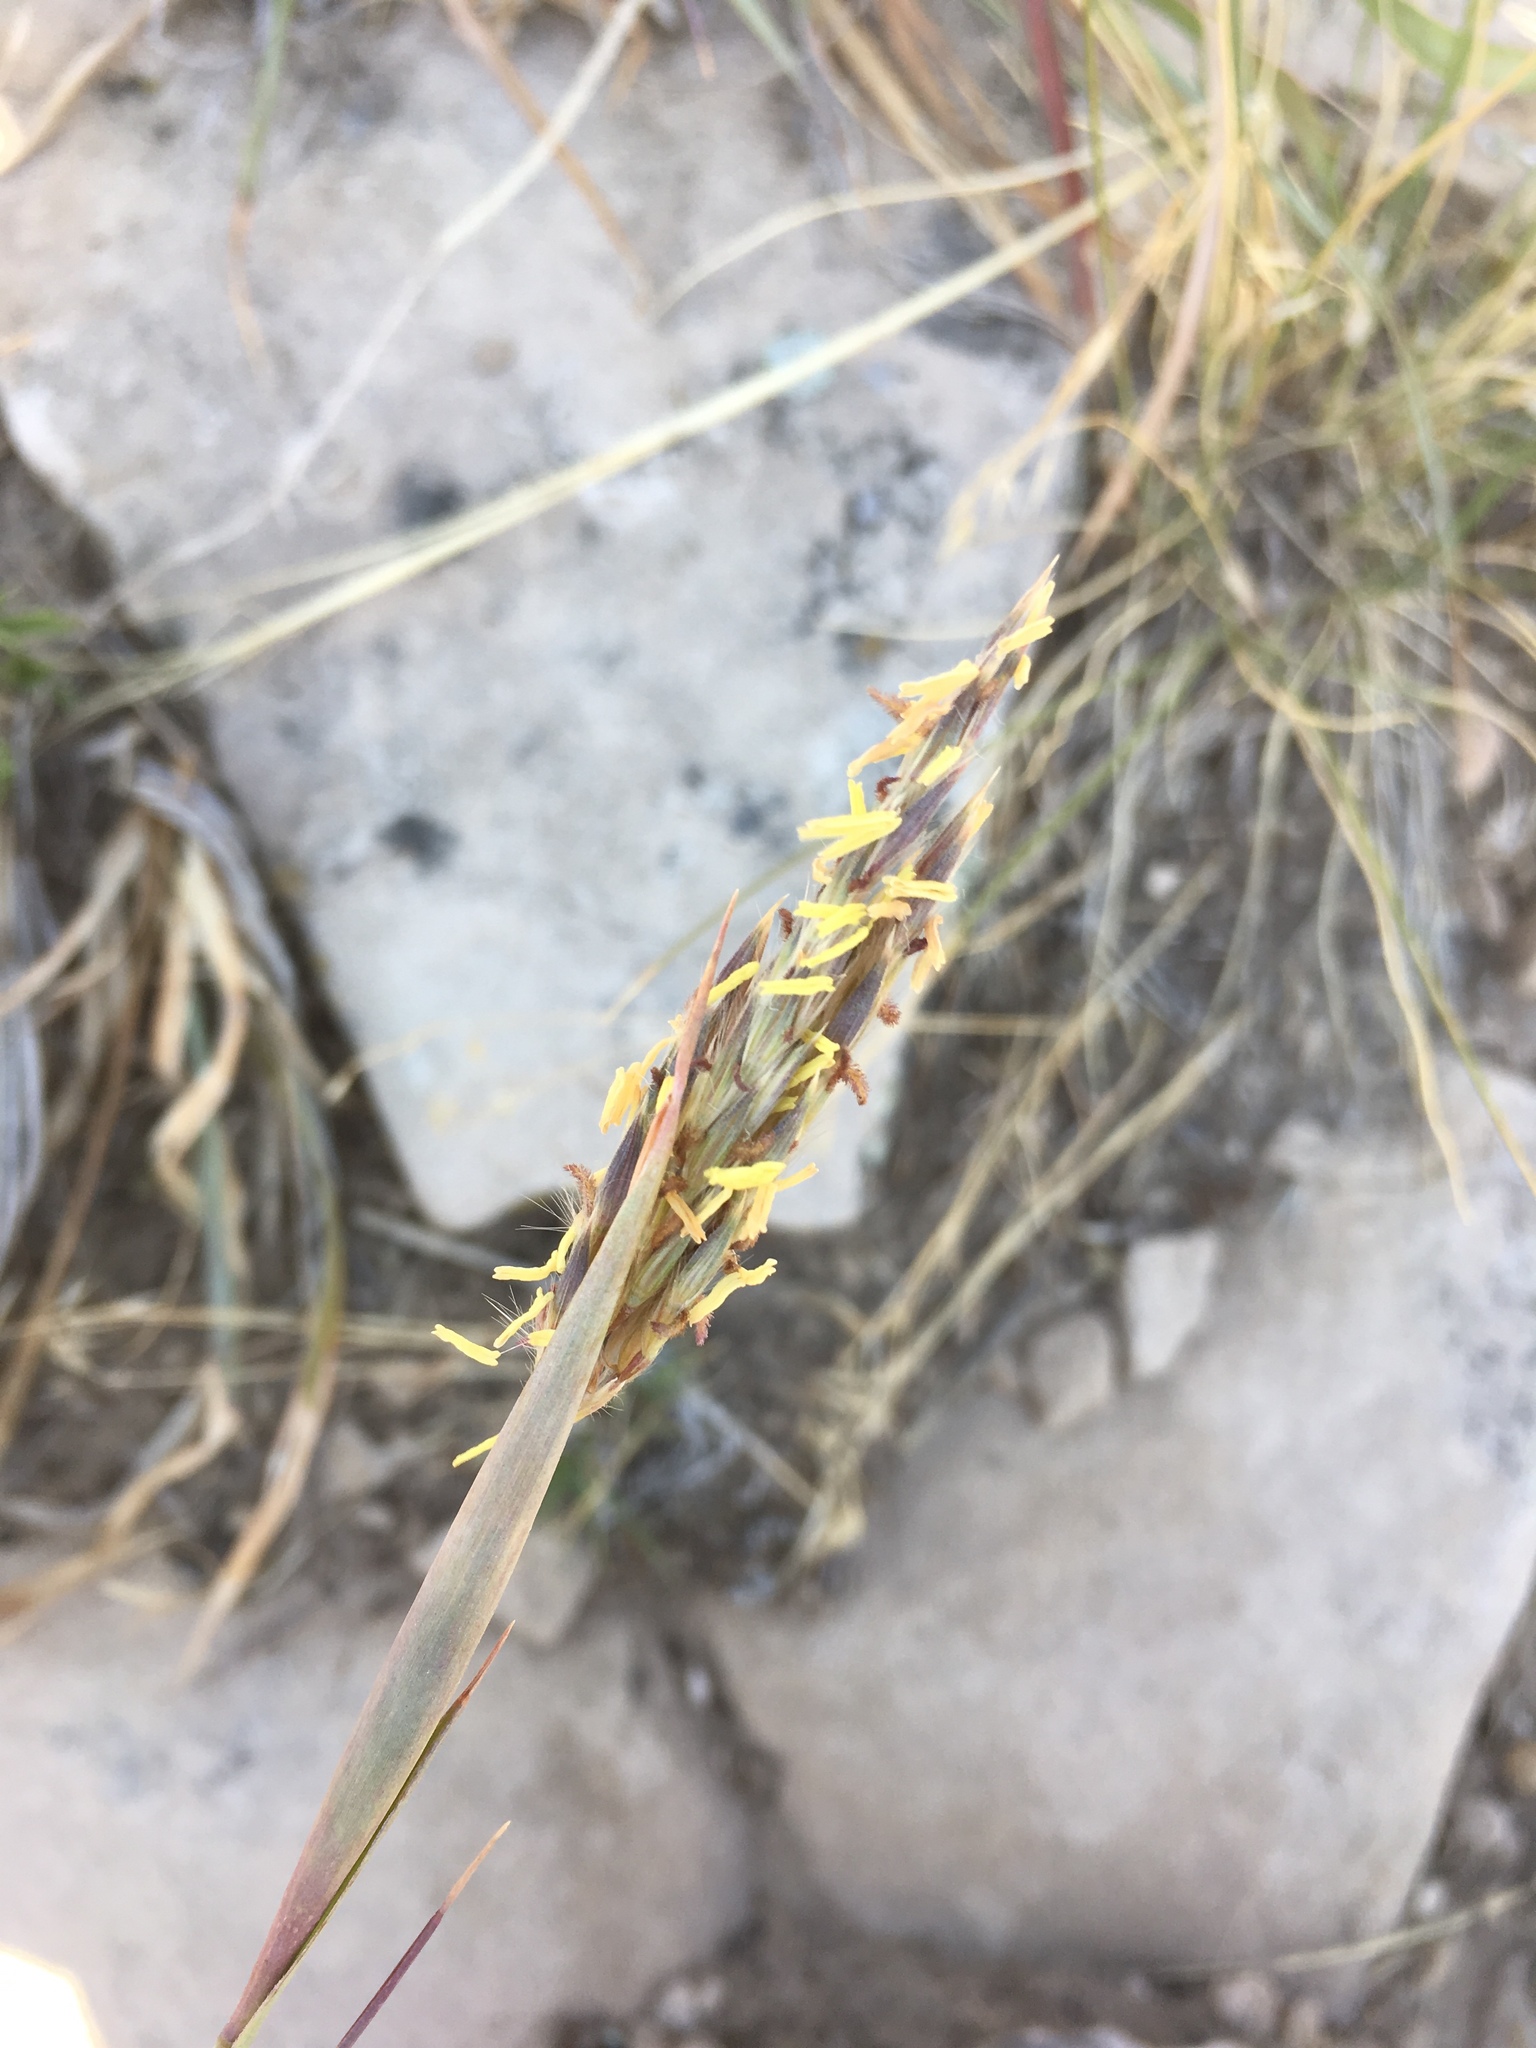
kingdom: Plantae
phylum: Tracheophyta
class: Liliopsida
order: Poales
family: Poaceae
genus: Andropogon
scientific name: Andropogon hallii
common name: Sand bluestem
